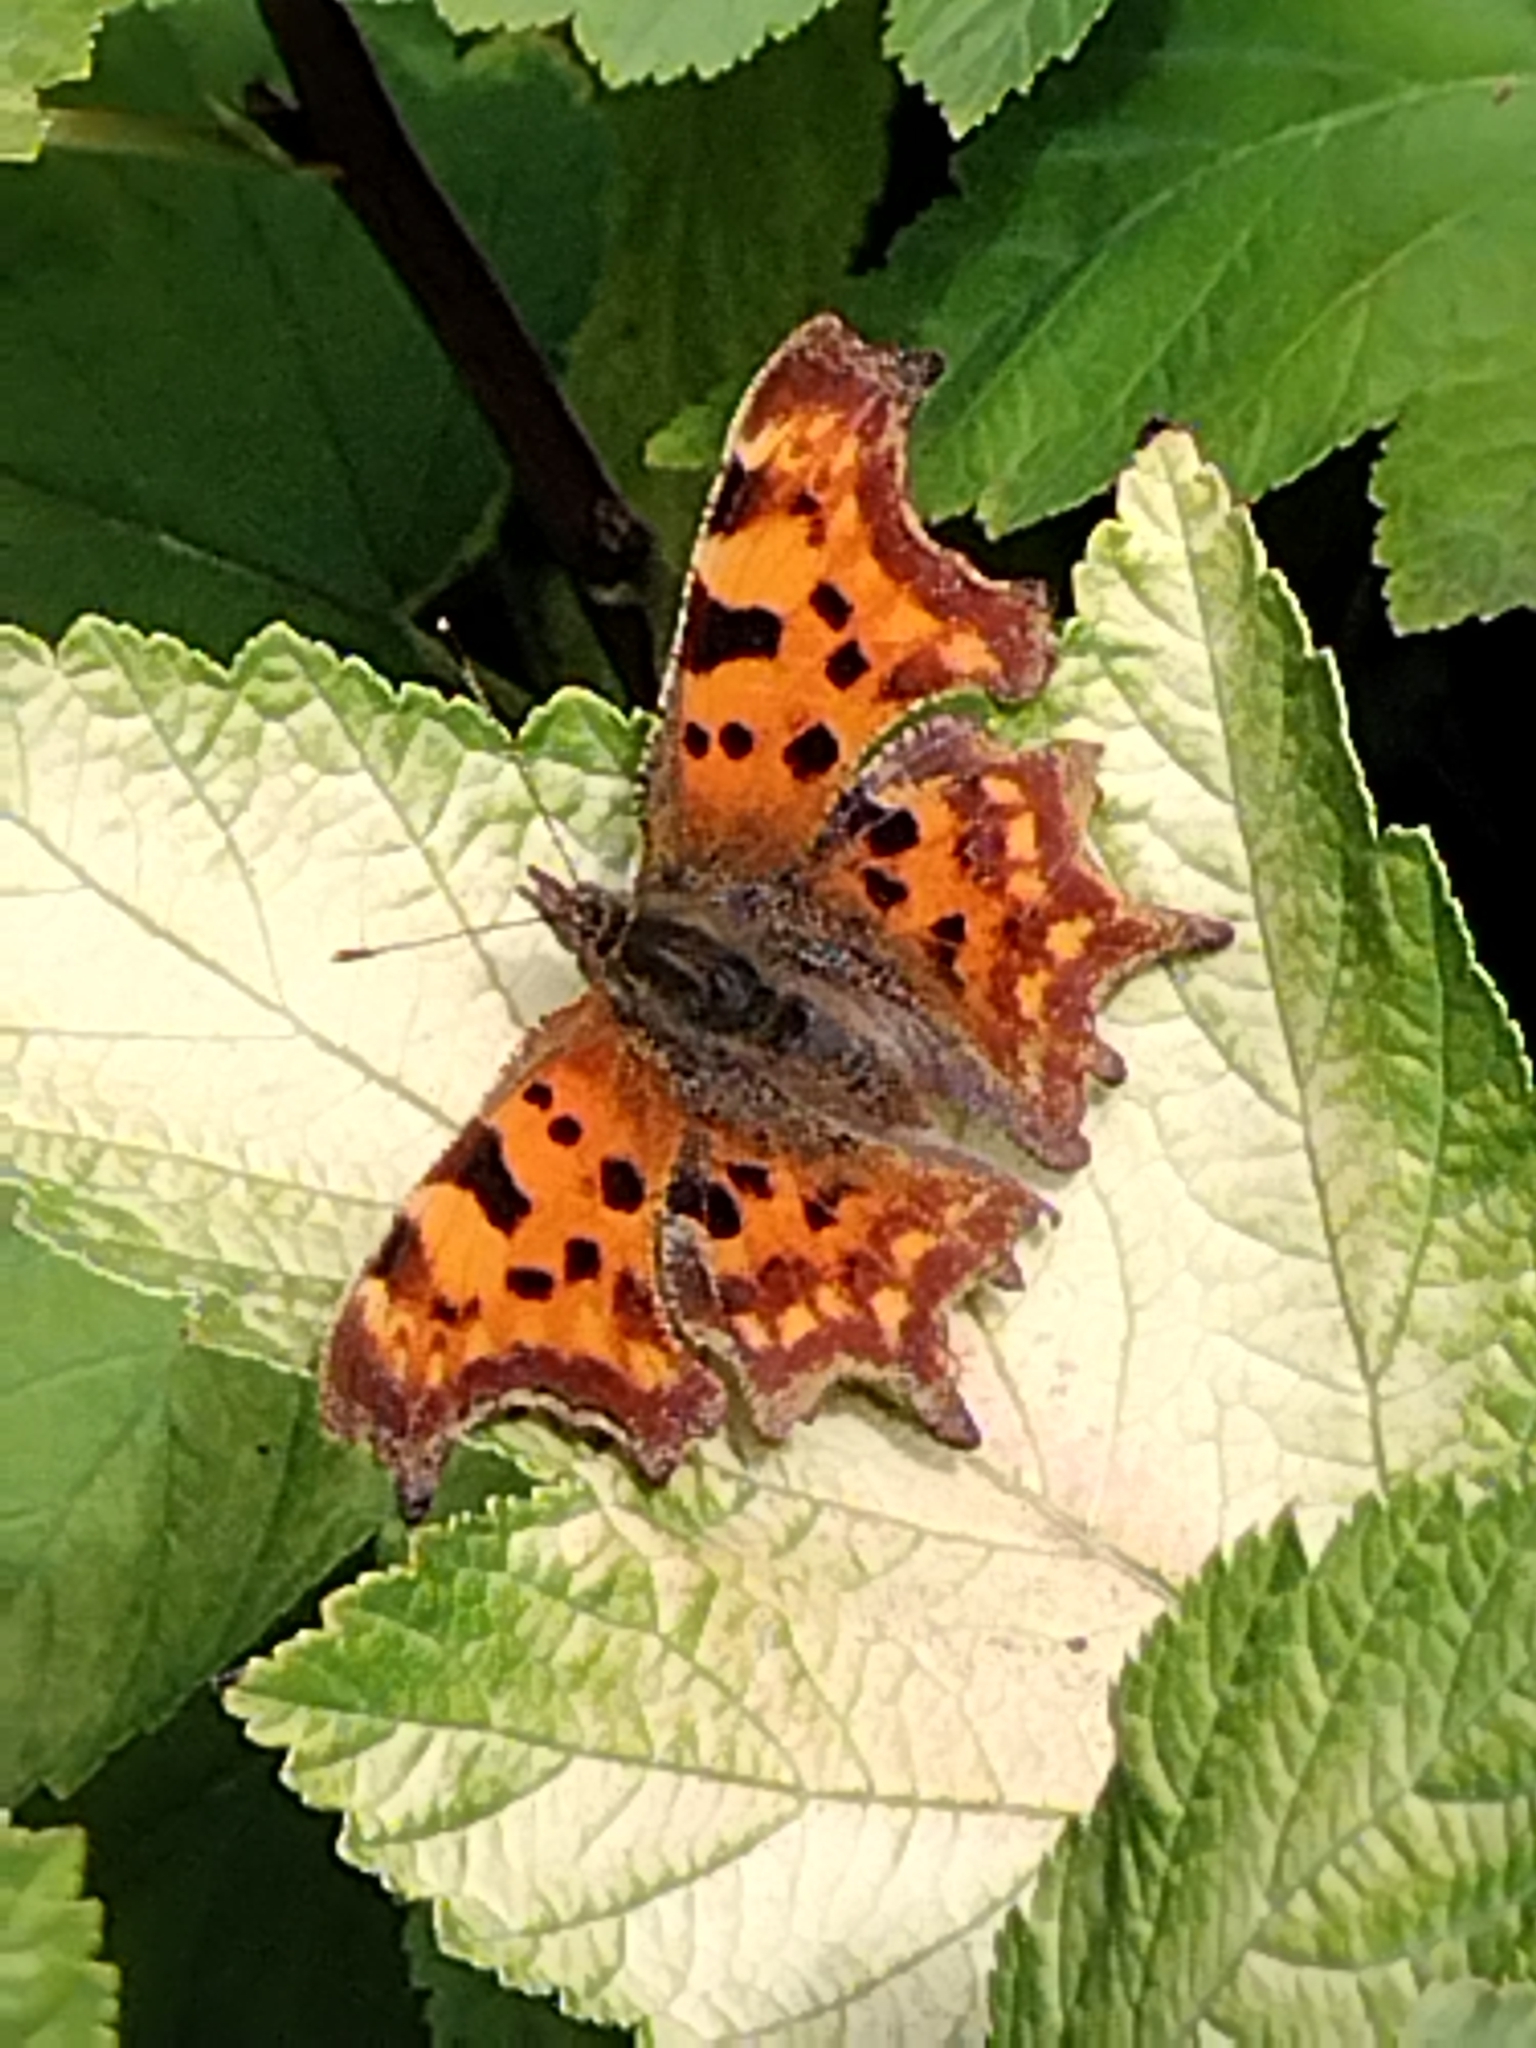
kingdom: Animalia
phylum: Arthropoda
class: Insecta
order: Lepidoptera
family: Nymphalidae
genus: Polygonia
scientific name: Polygonia c-album
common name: Comma
